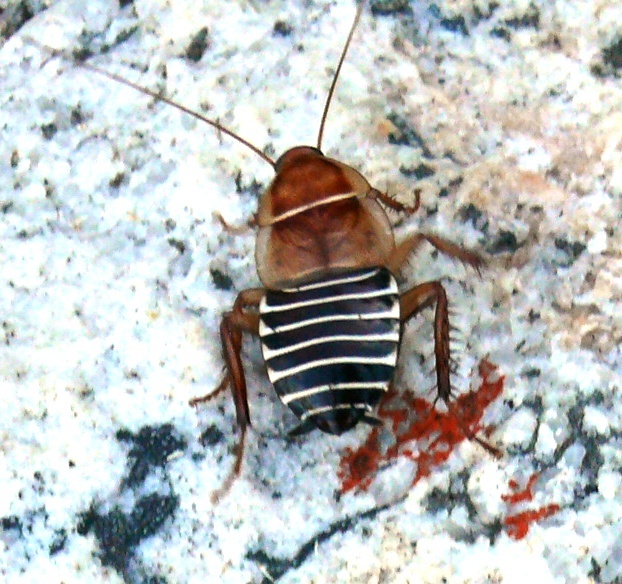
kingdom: Animalia
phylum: Arthropoda
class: Insecta
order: Blattodea
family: Ectobiidae
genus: Temnopteryx
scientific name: Temnopteryx phalerata
